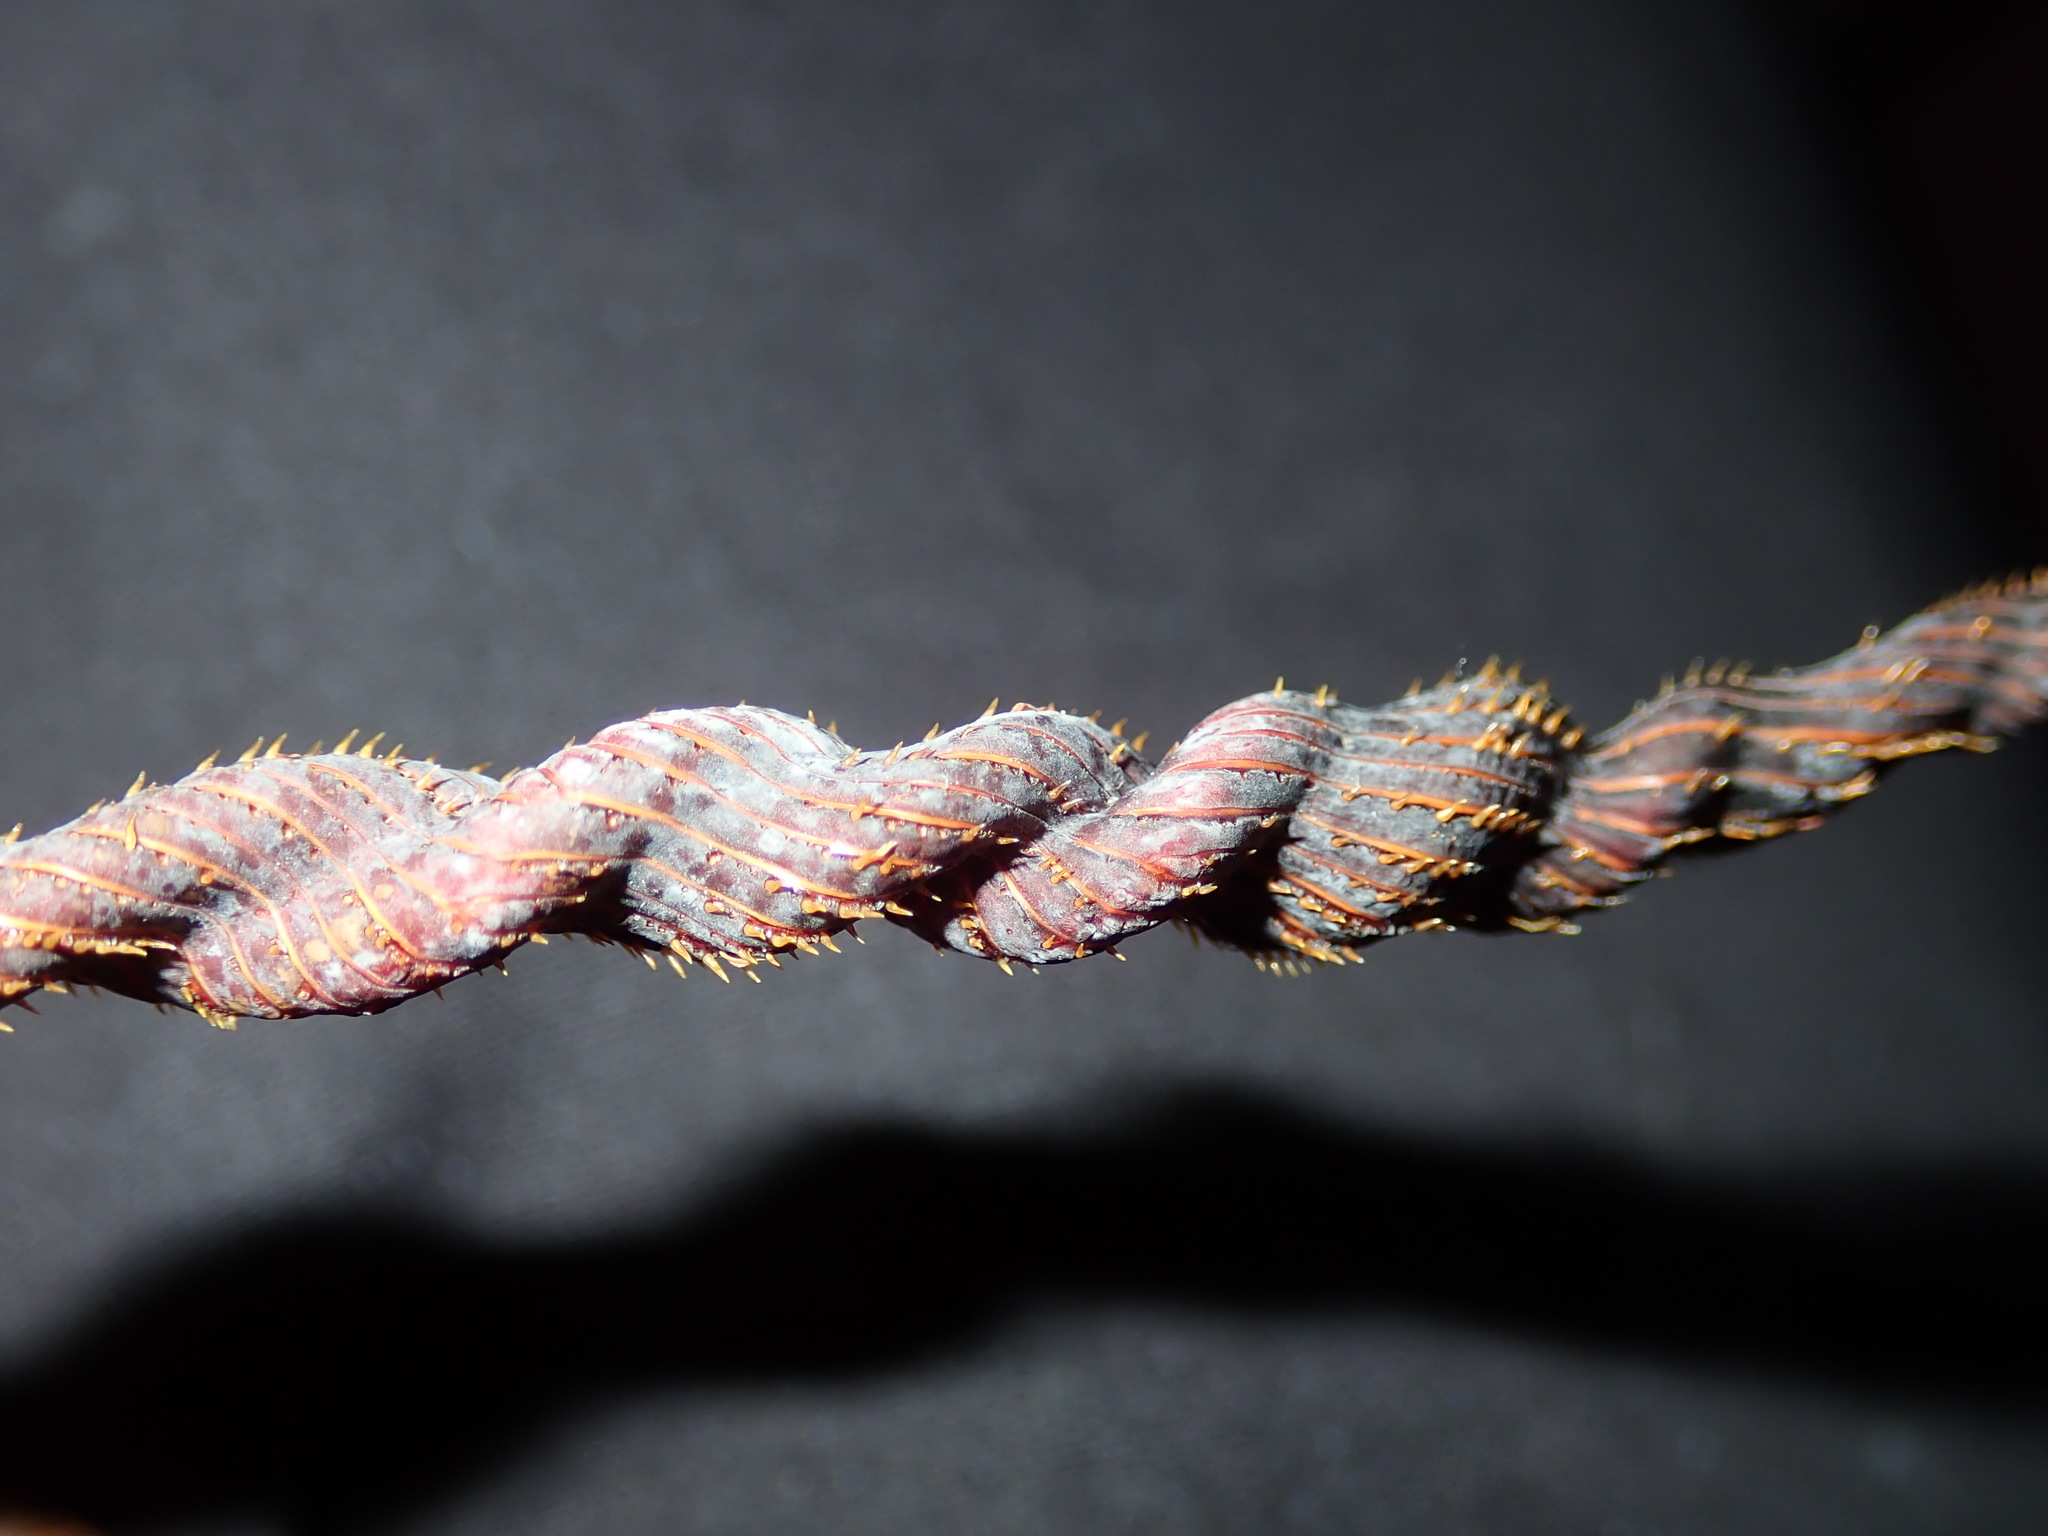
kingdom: Animalia
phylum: Arthropoda
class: Malacostraca
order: Decapoda
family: Palinuridae
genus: Sagmariasus
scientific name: Sagmariasus verreauxi
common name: Green rock lobster
